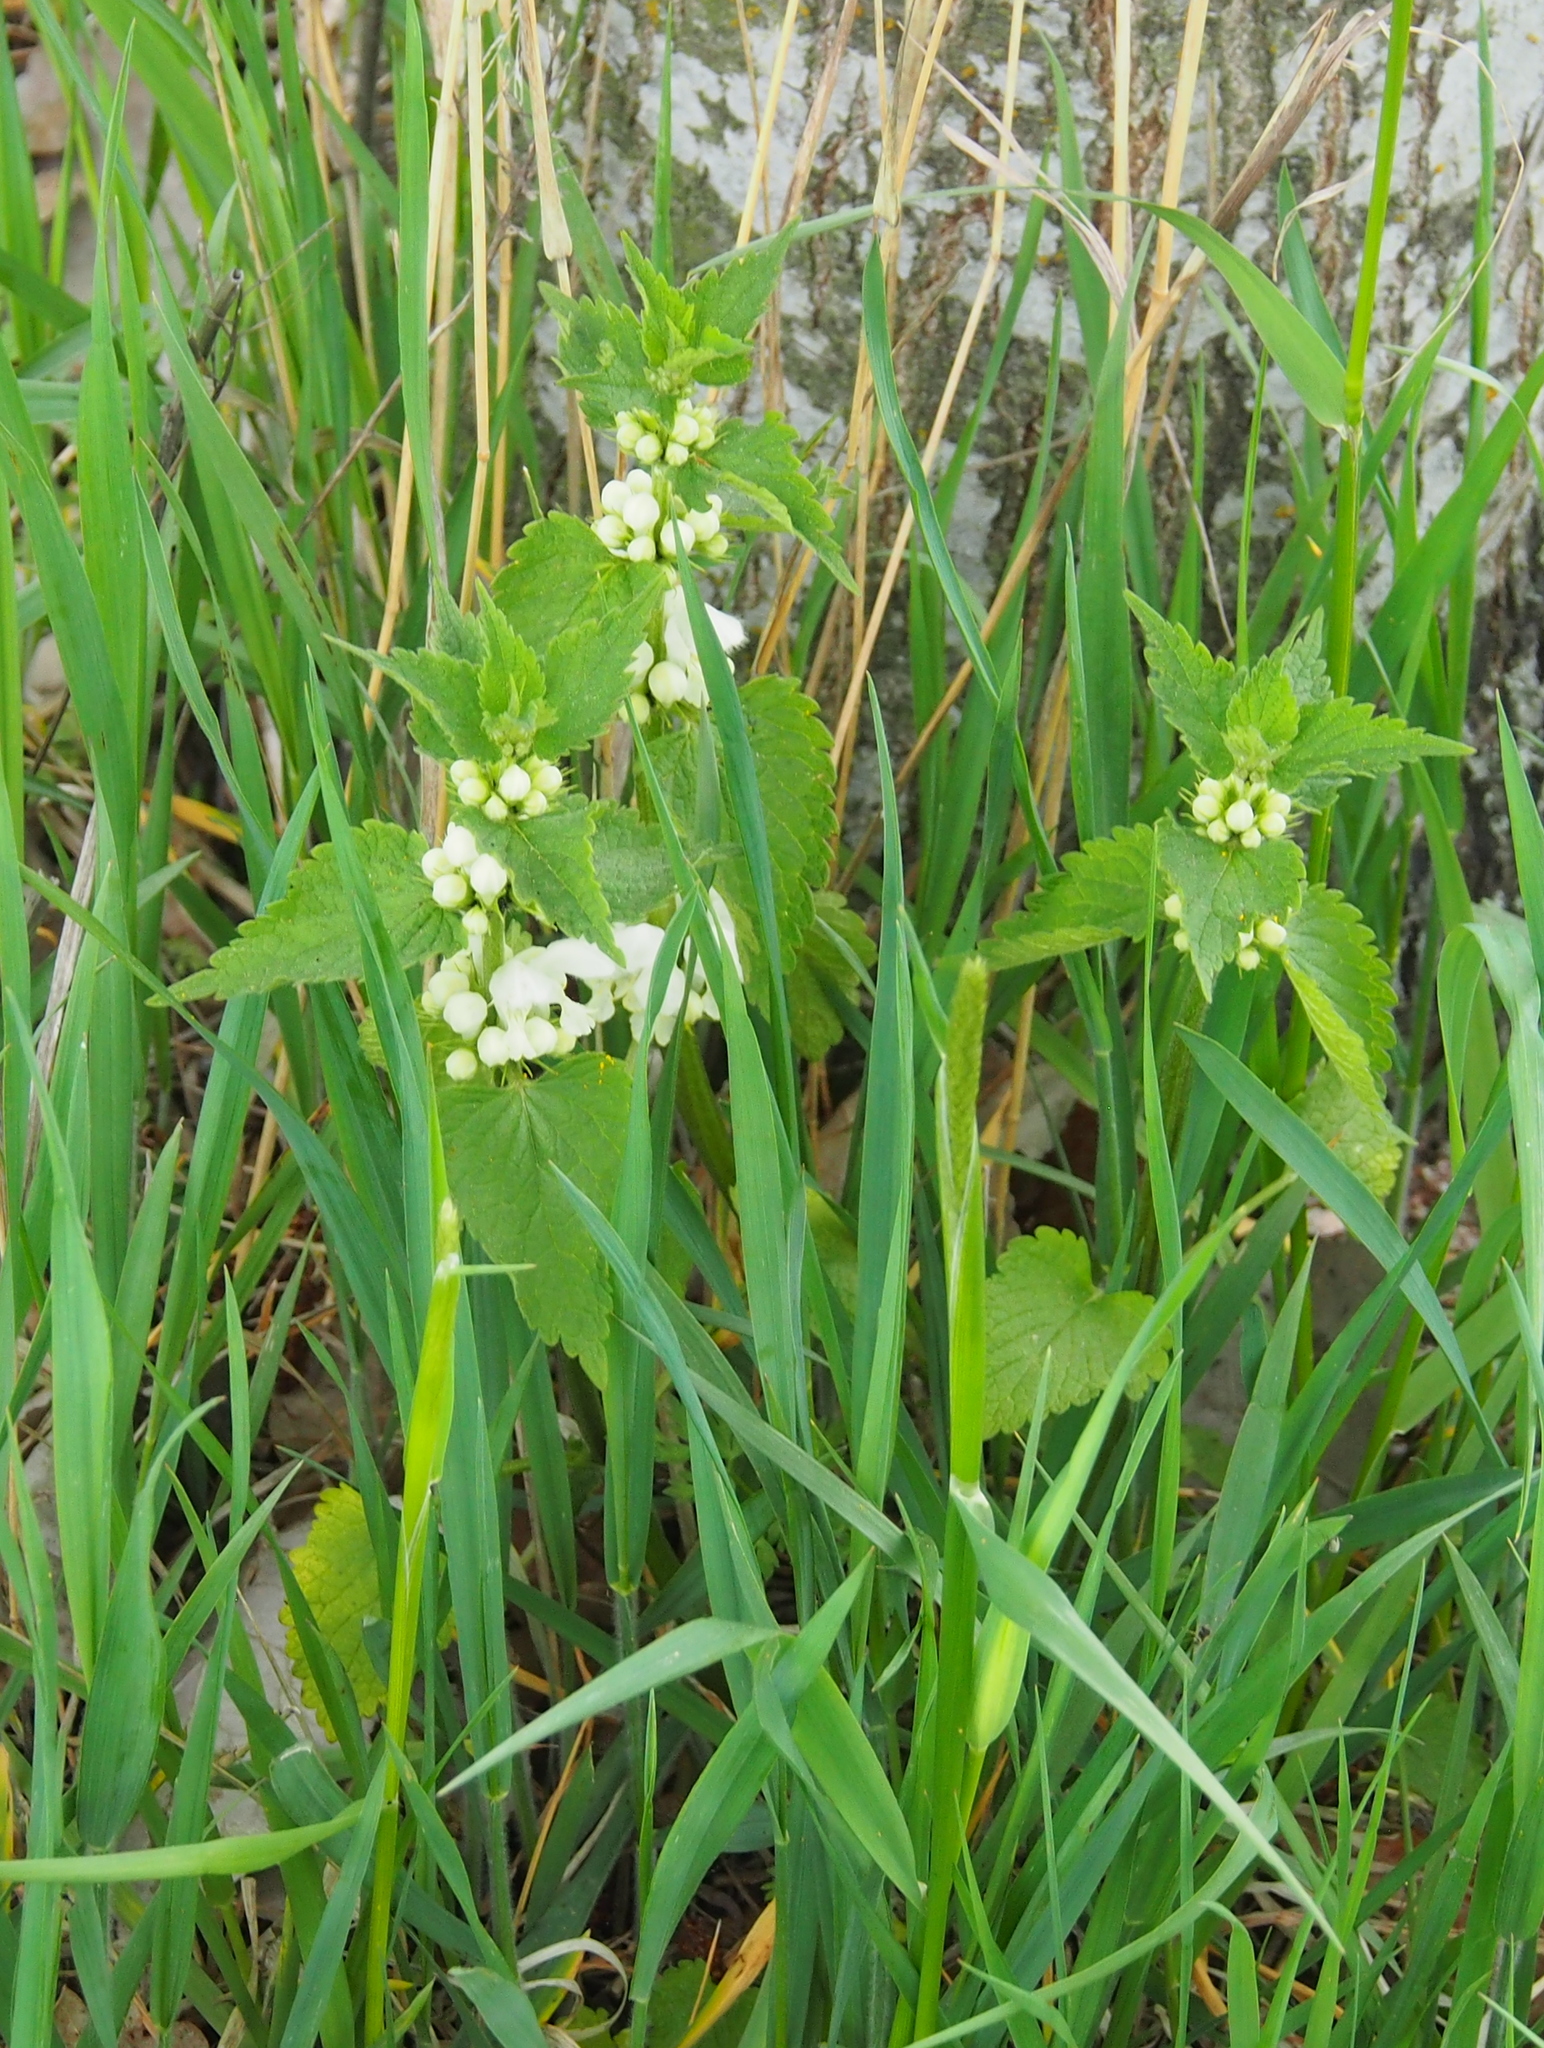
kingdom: Plantae
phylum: Tracheophyta
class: Magnoliopsida
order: Lamiales
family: Lamiaceae
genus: Lamium
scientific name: Lamium album
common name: White dead-nettle
